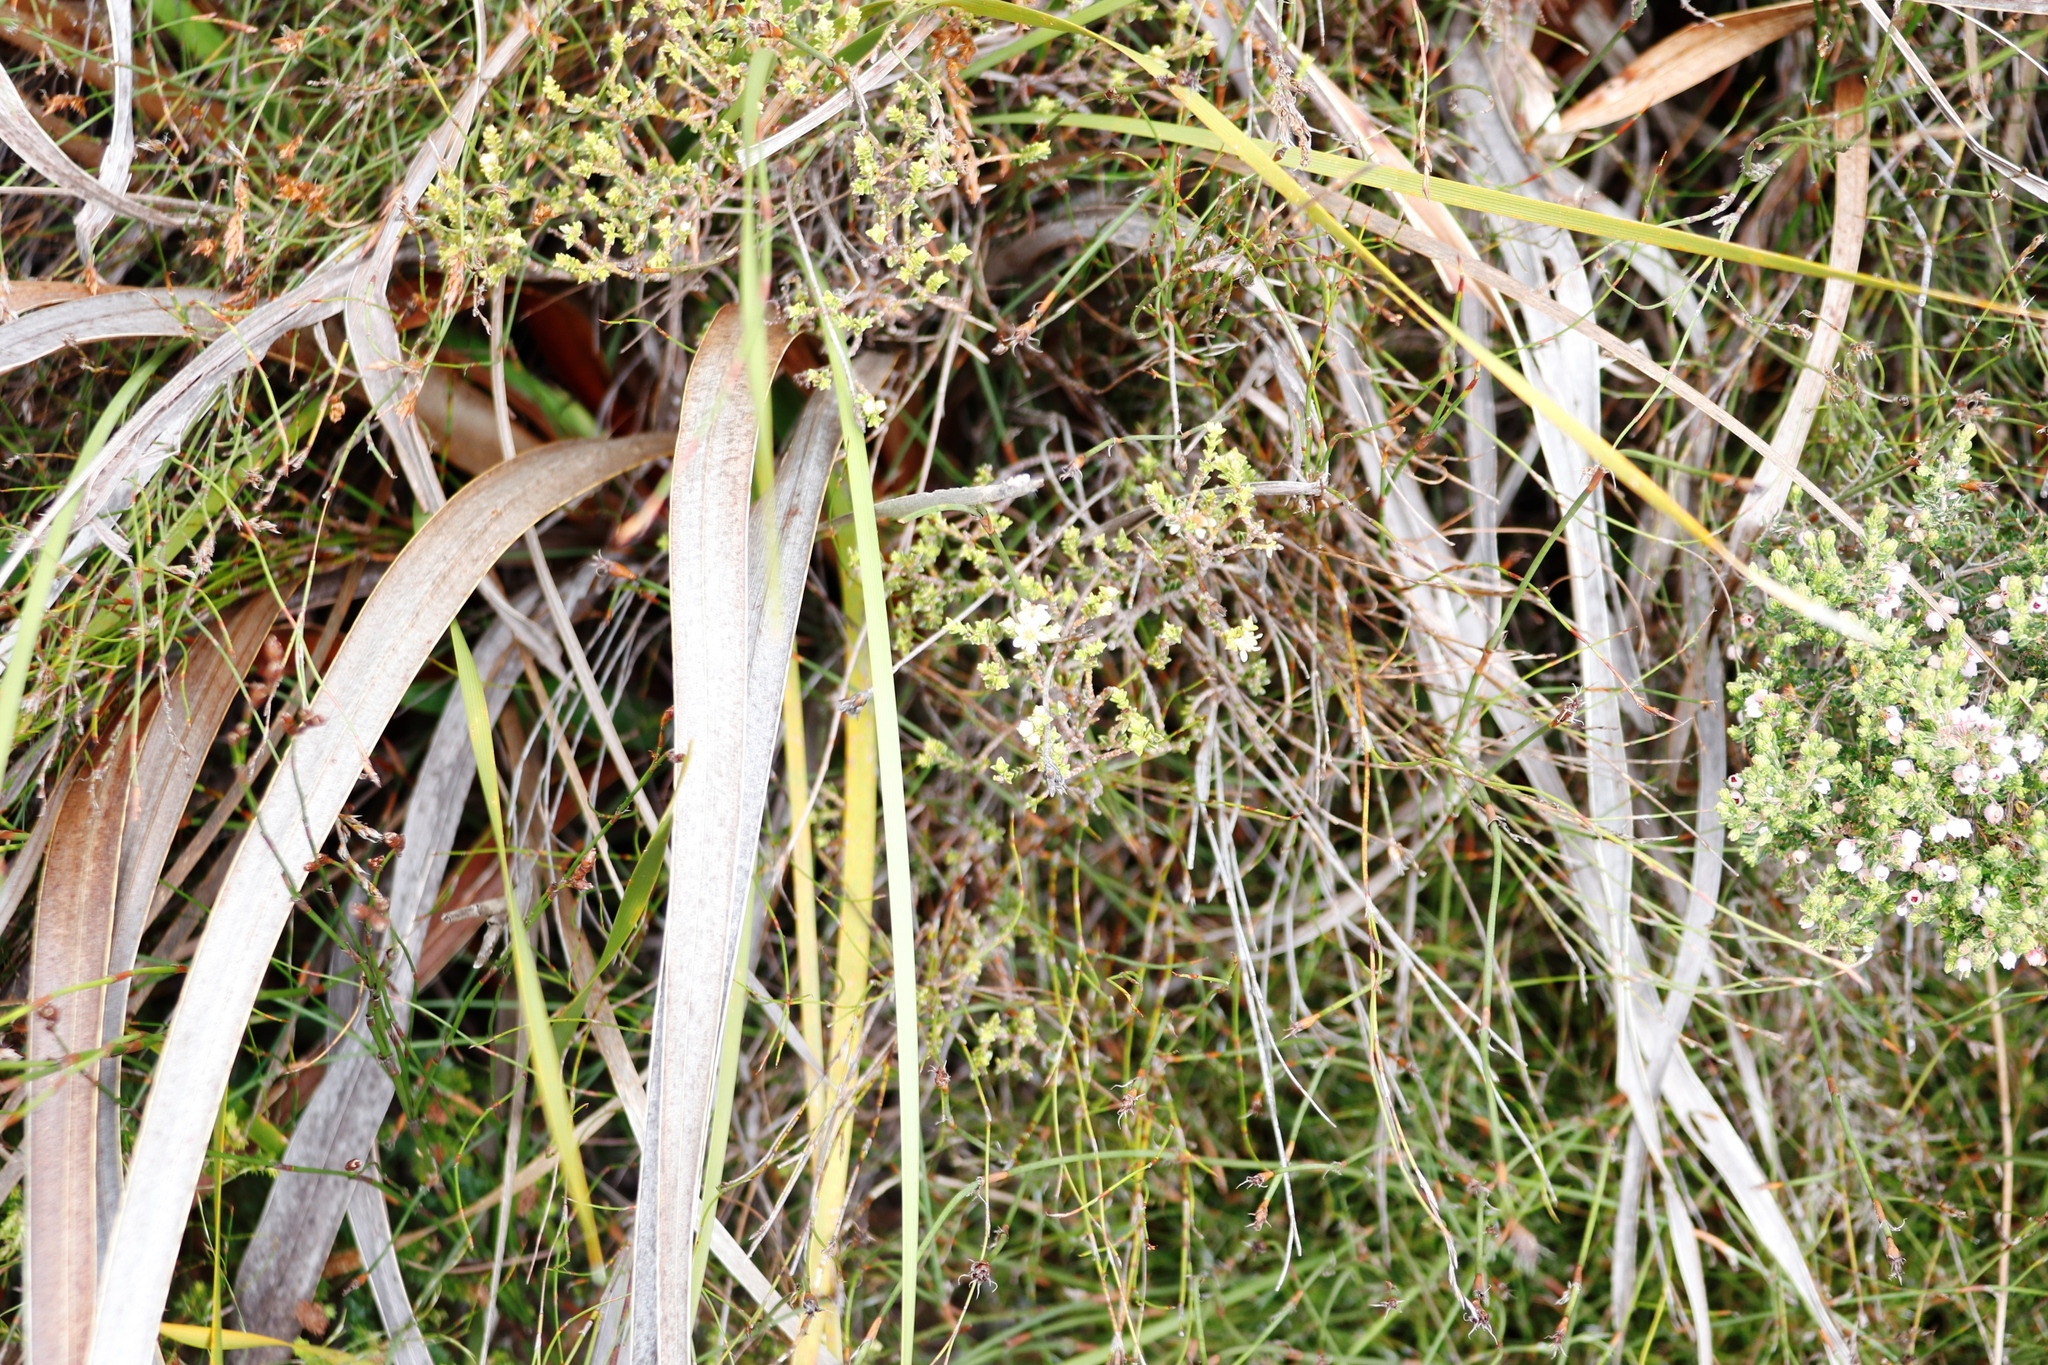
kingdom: Plantae
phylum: Tracheophyta
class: Magnoliopsida
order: Sapindales
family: Rutaceae
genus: Diosma
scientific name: Diosma oppositifolia
